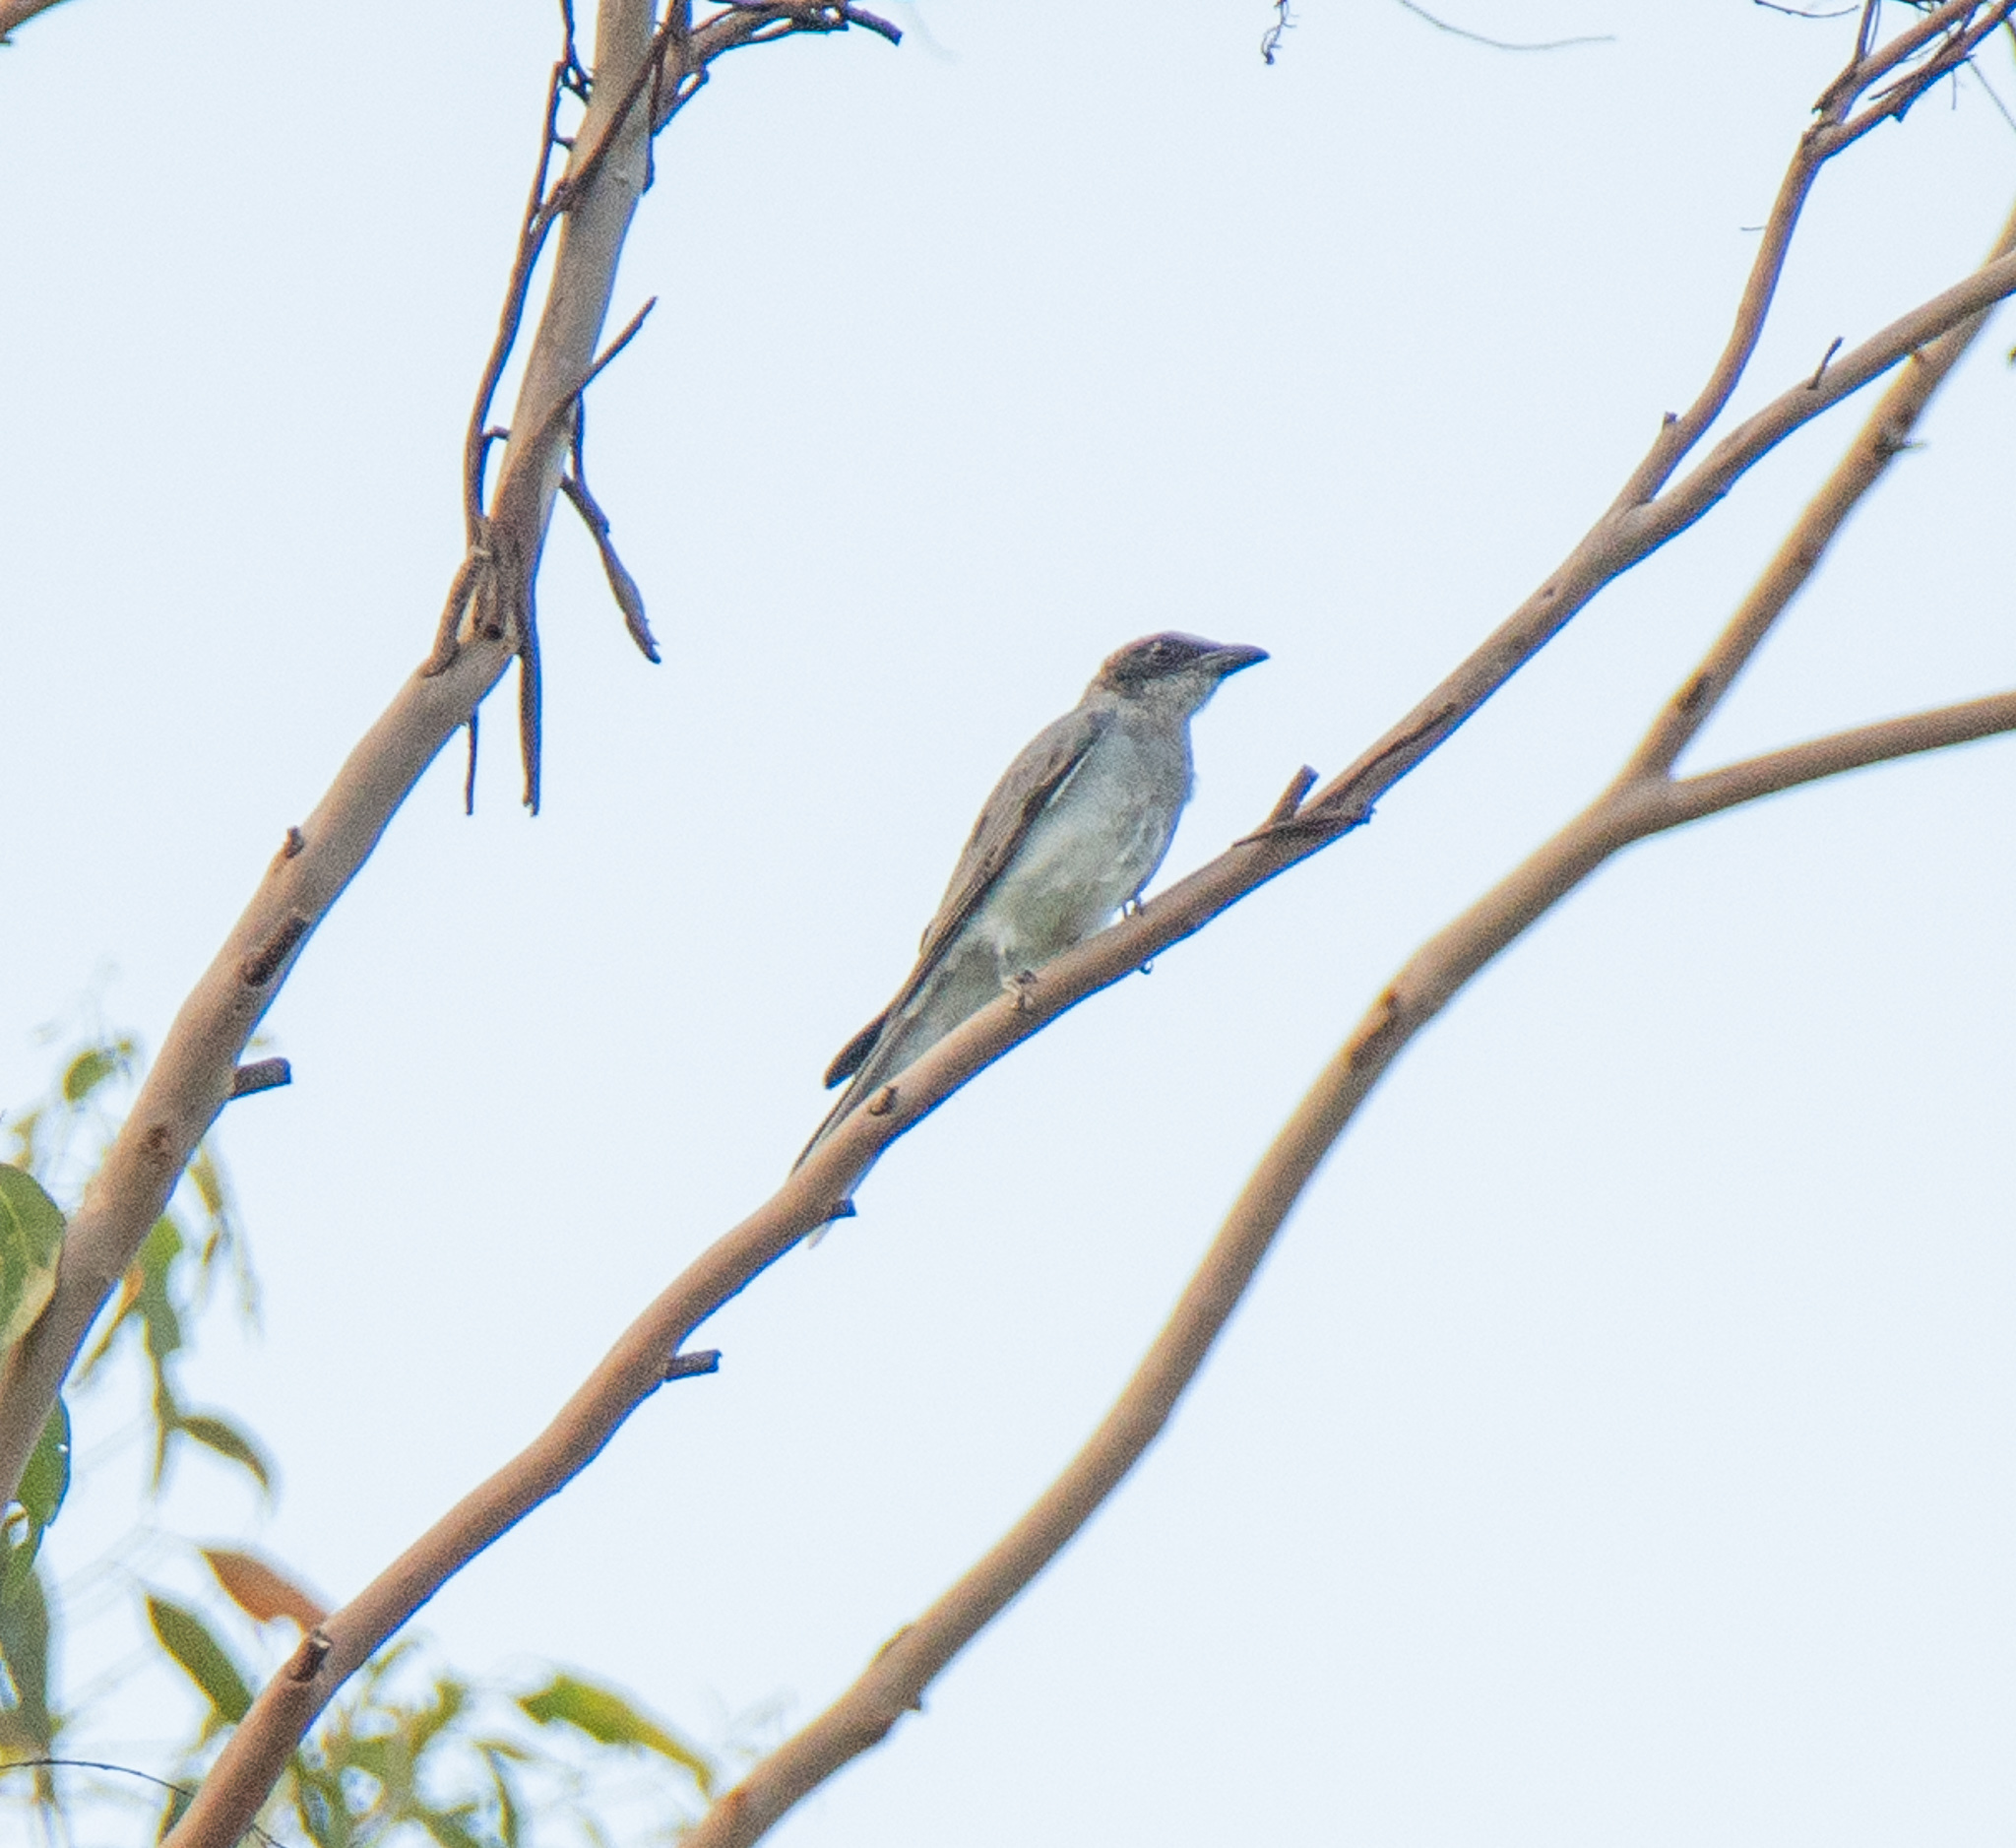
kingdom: Animalia
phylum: Chordata
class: Aves
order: Passeriformes
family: Campephagidae
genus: Coracina
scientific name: Coracina novaehollandiae
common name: Black-faced cuckooshrike
